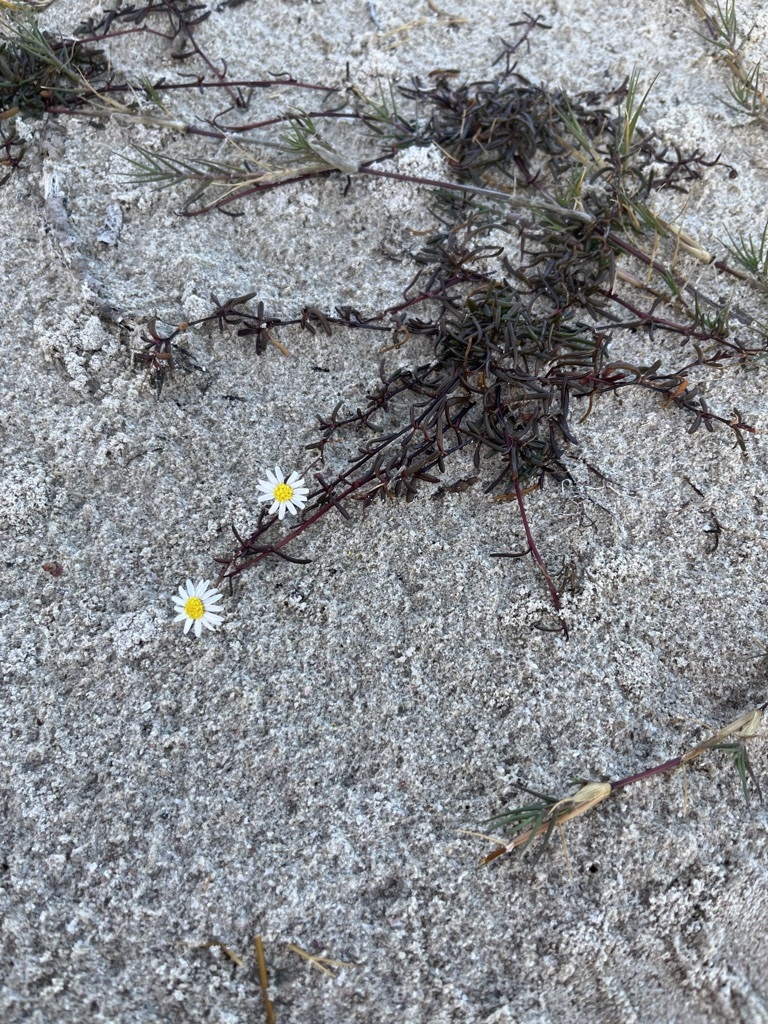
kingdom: Plantae
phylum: Tracheophyta
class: Magnoliopsida
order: Asterales
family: Asteraceae
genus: Poecilolepis
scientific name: Poecilolepis maritima
